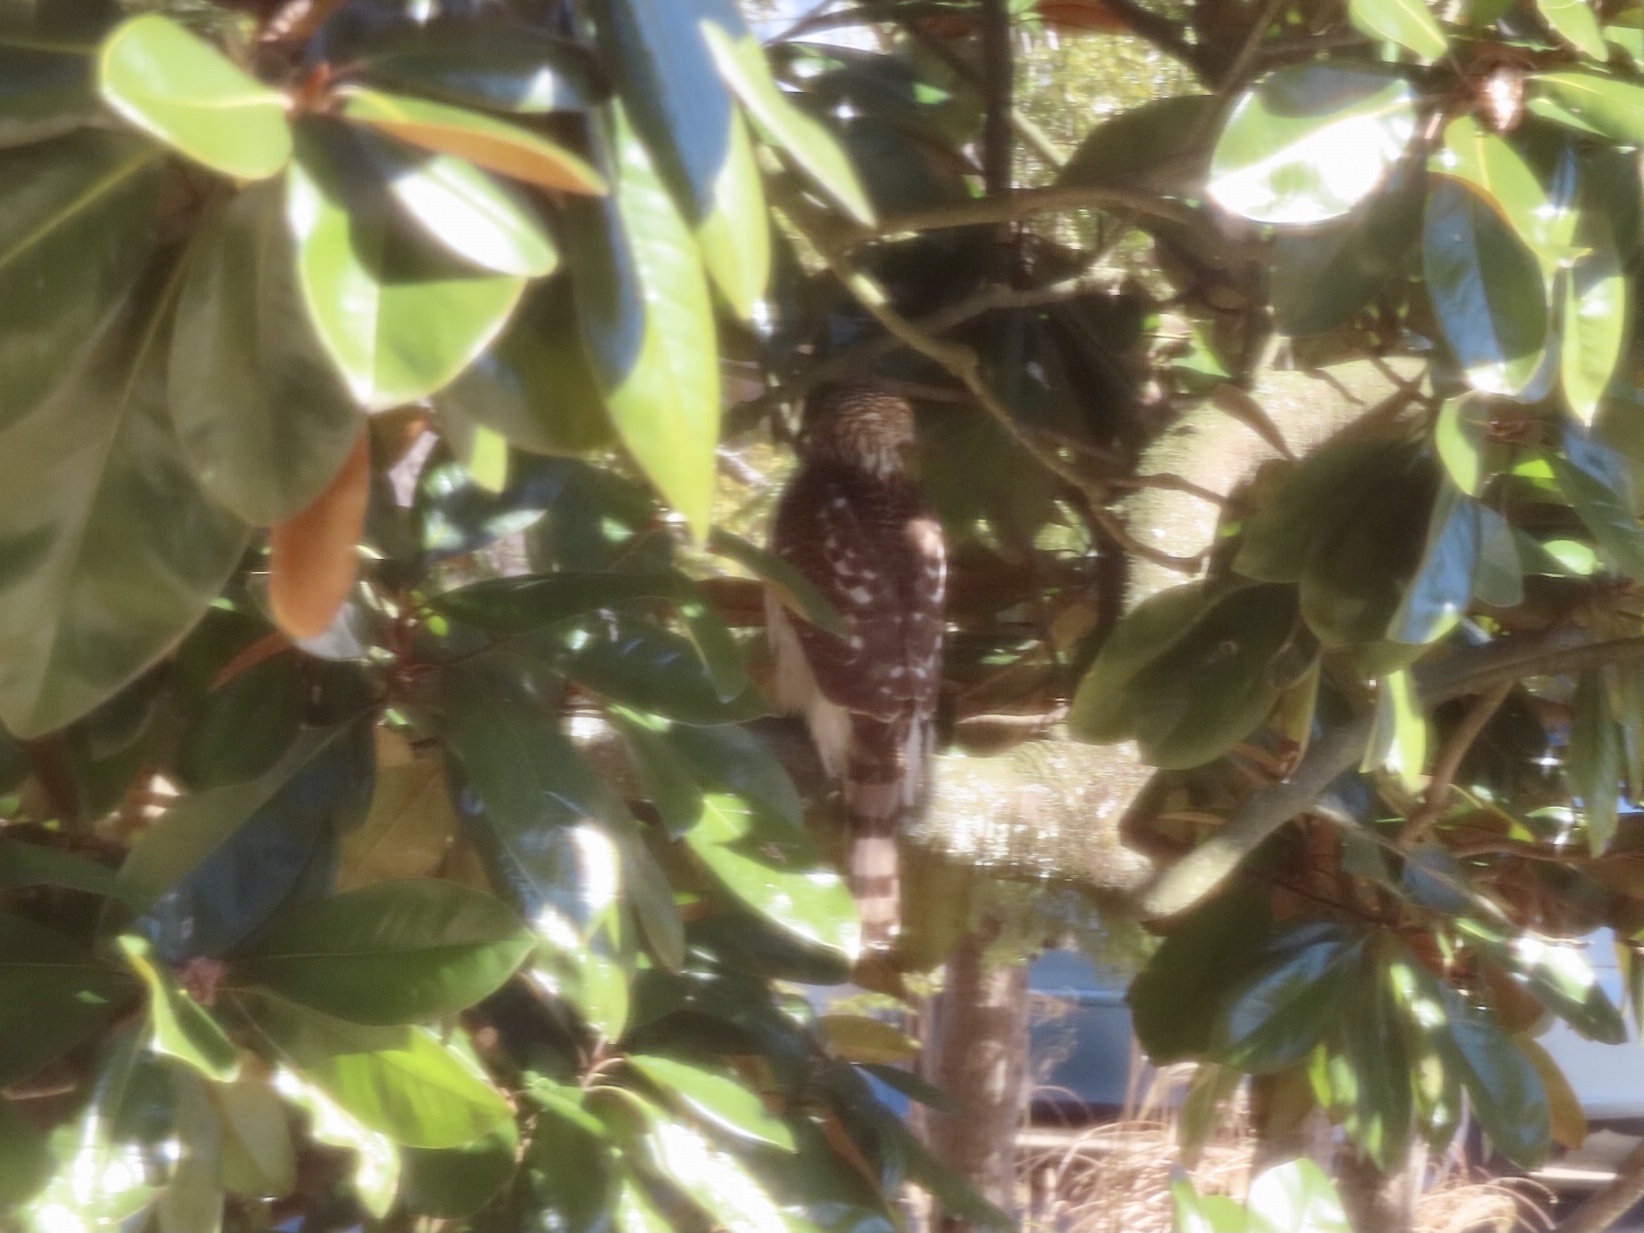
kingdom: Animalia
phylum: Chordata
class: Aves
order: Accipitriformes
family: Accipitridae
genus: Accipiter
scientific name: Accipiter cooperii
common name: Cooper's hawk
